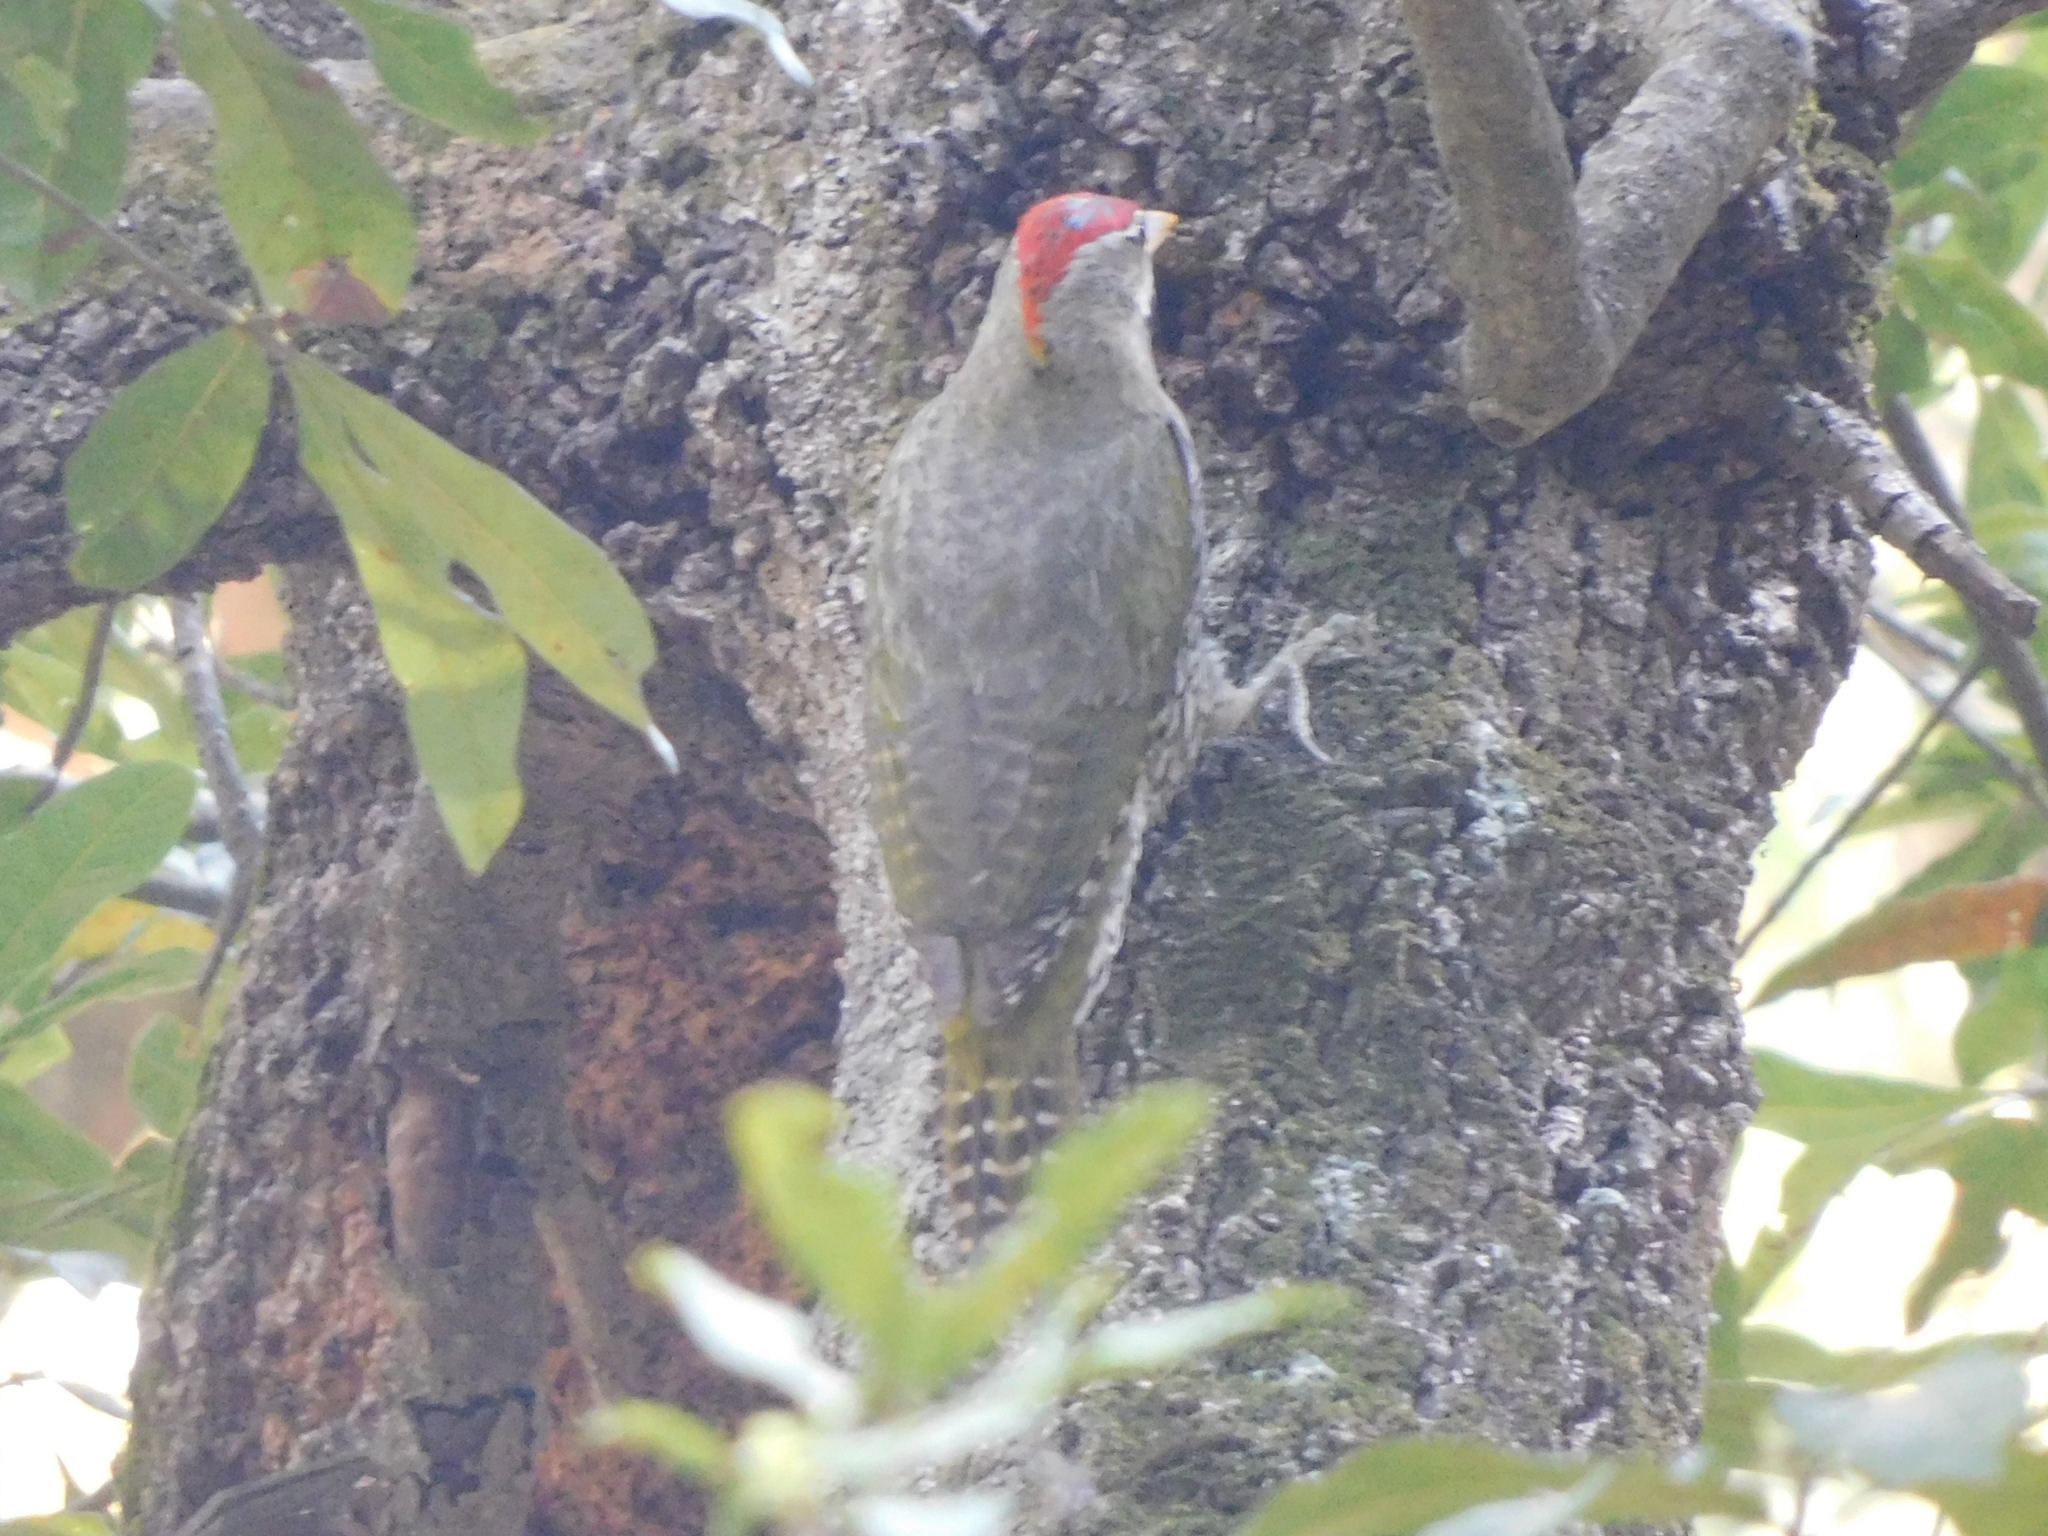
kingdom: Animalia
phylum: Chordata
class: Aves
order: Piciformes
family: Picidae
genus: Picus
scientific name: Picus squamatus
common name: Scaly-bellied woodpecker
